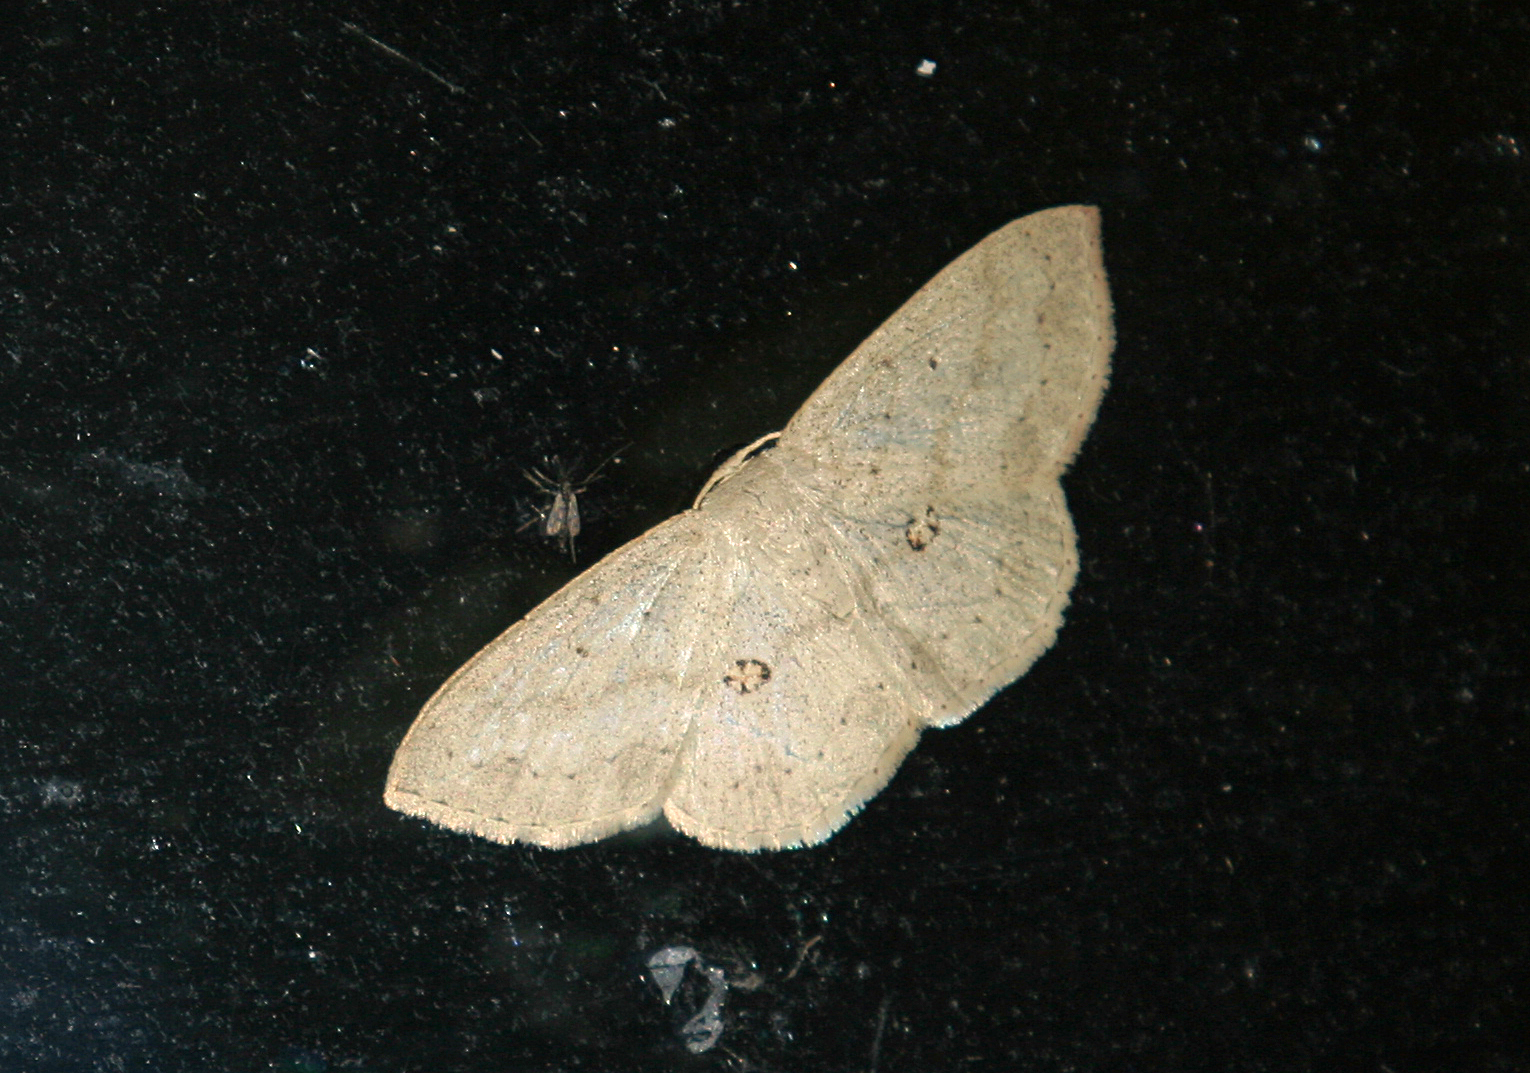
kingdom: Animalia
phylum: Arthropoda
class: Insecta
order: Lepidoptera
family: Geometridae
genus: Semaeopus
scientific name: Semaeopus cantona
